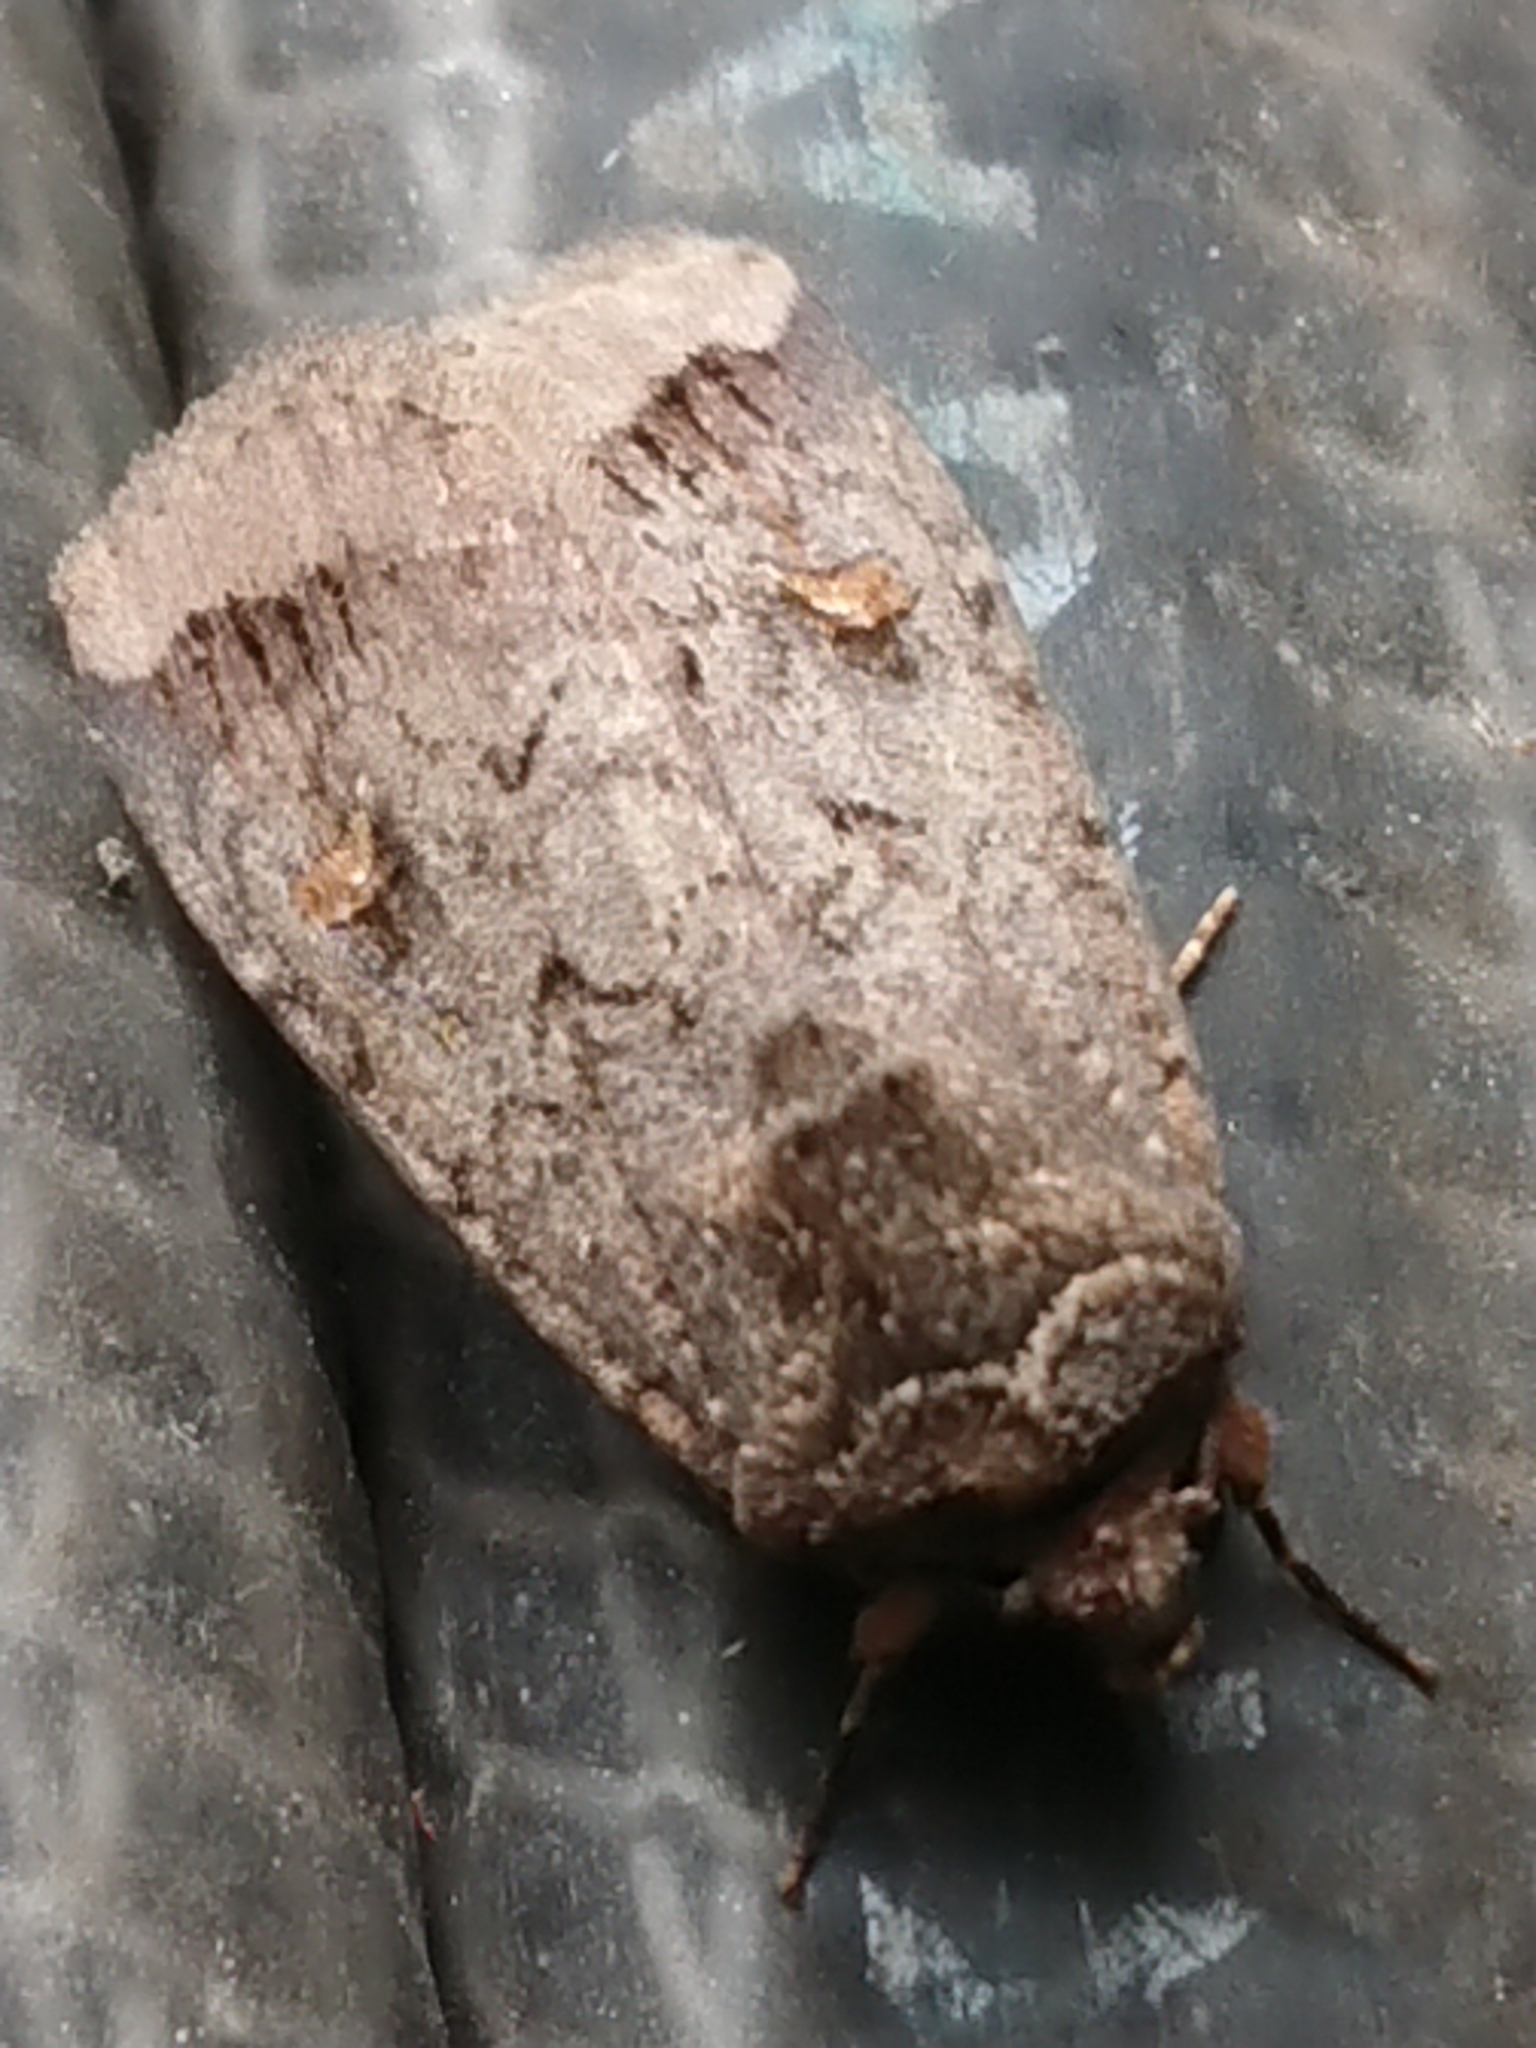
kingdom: Animalia
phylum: Arthropoda
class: Insecta
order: Lepidoptera
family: Noctuidae
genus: Proteuxoa
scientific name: Proteuxoa tetronycha
